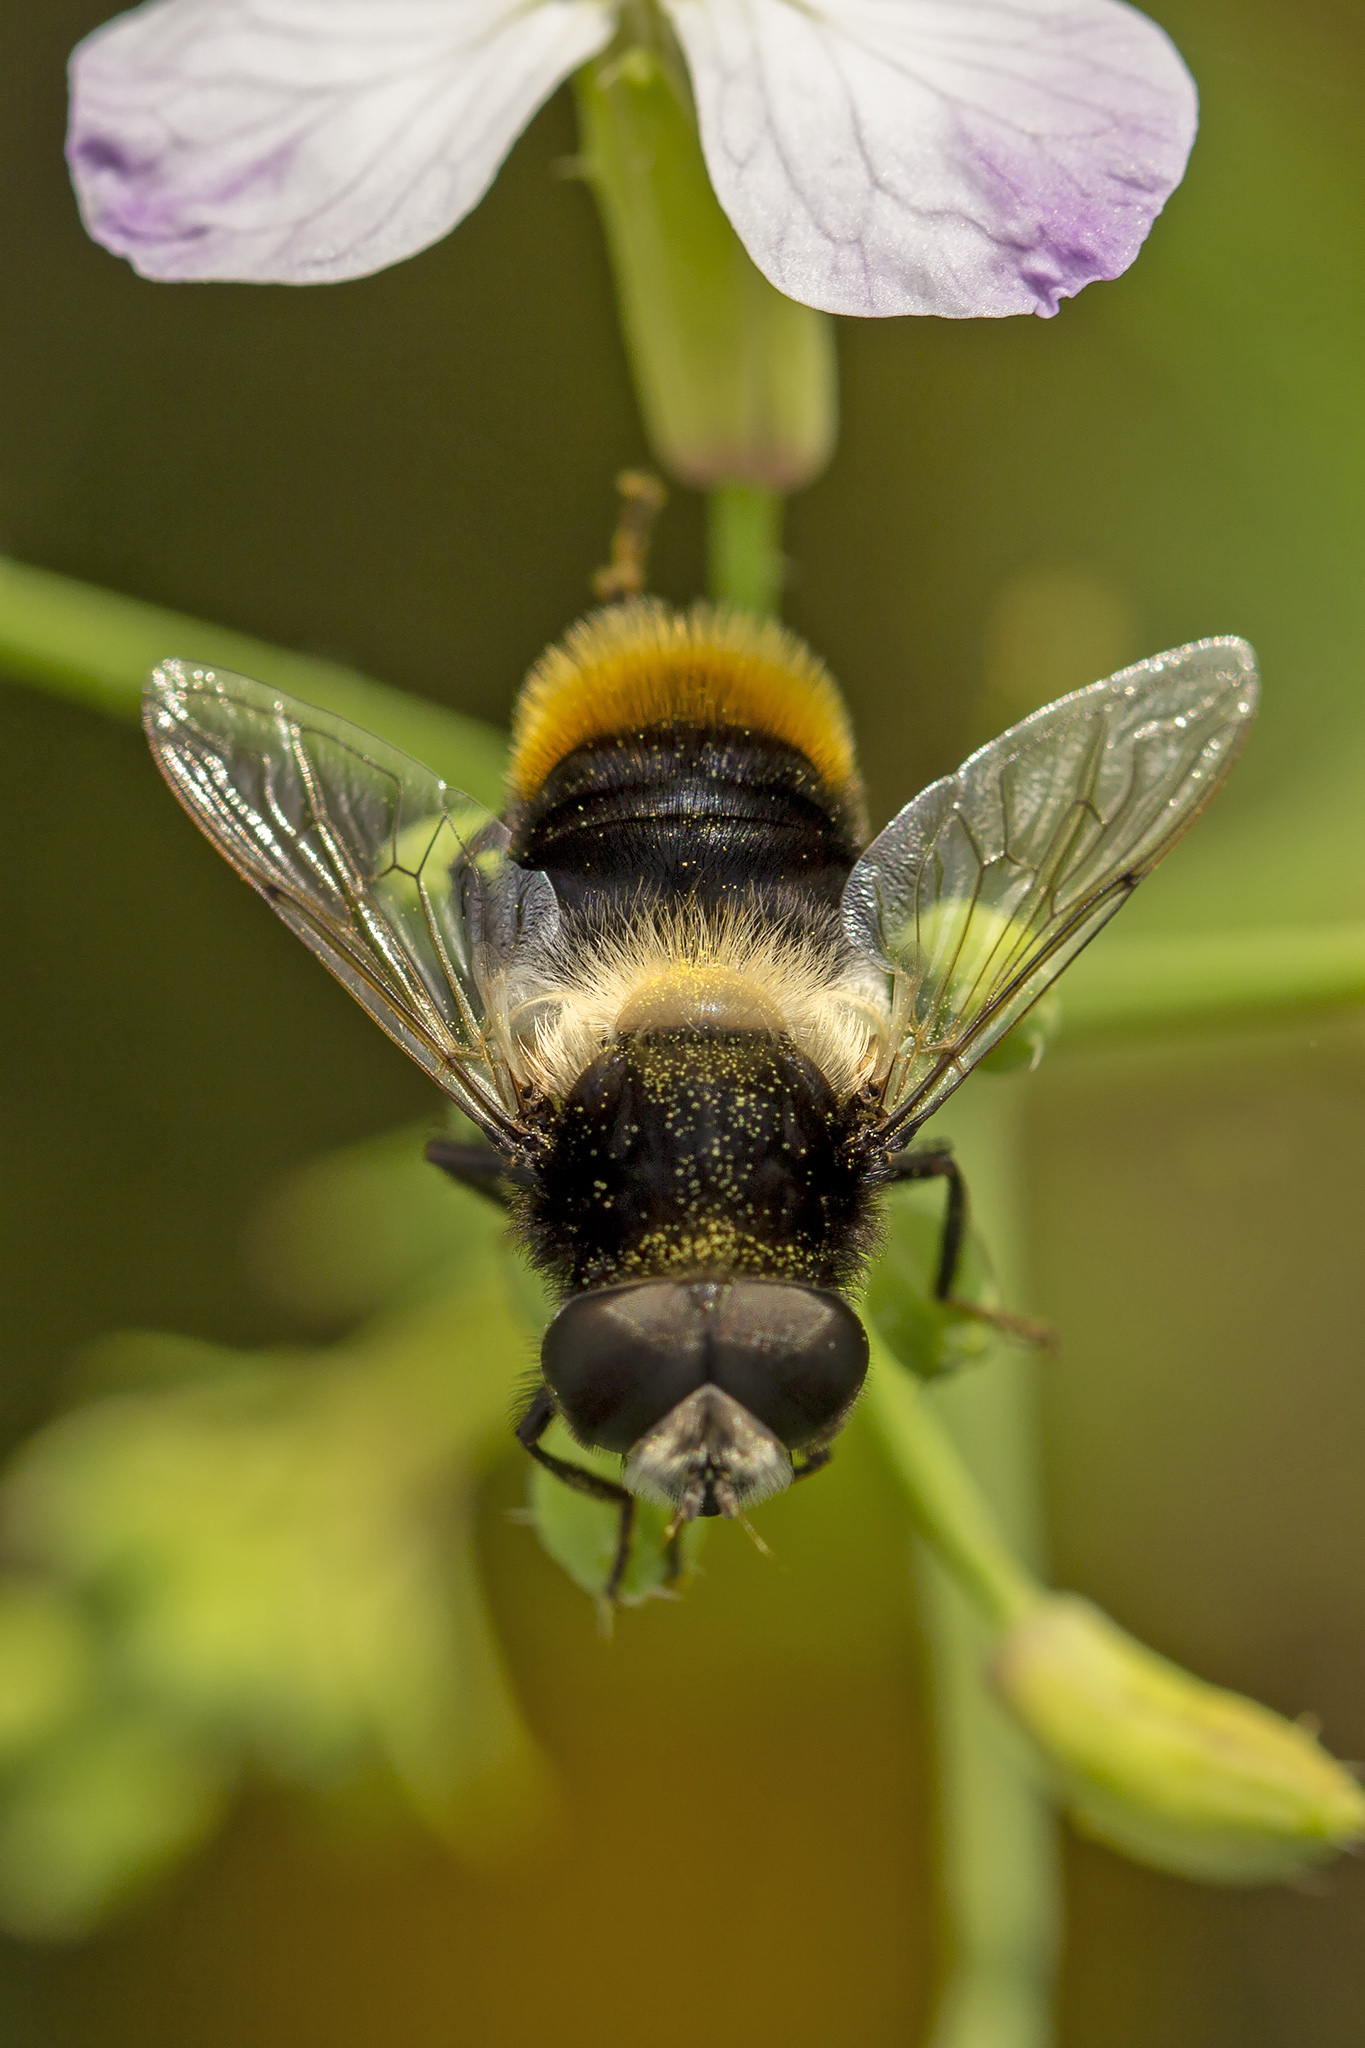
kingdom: Animalia
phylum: Arthropoda
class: Insecta
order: Diptera
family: Syrphidae
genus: Eristalis
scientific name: Eristalis oestracea
